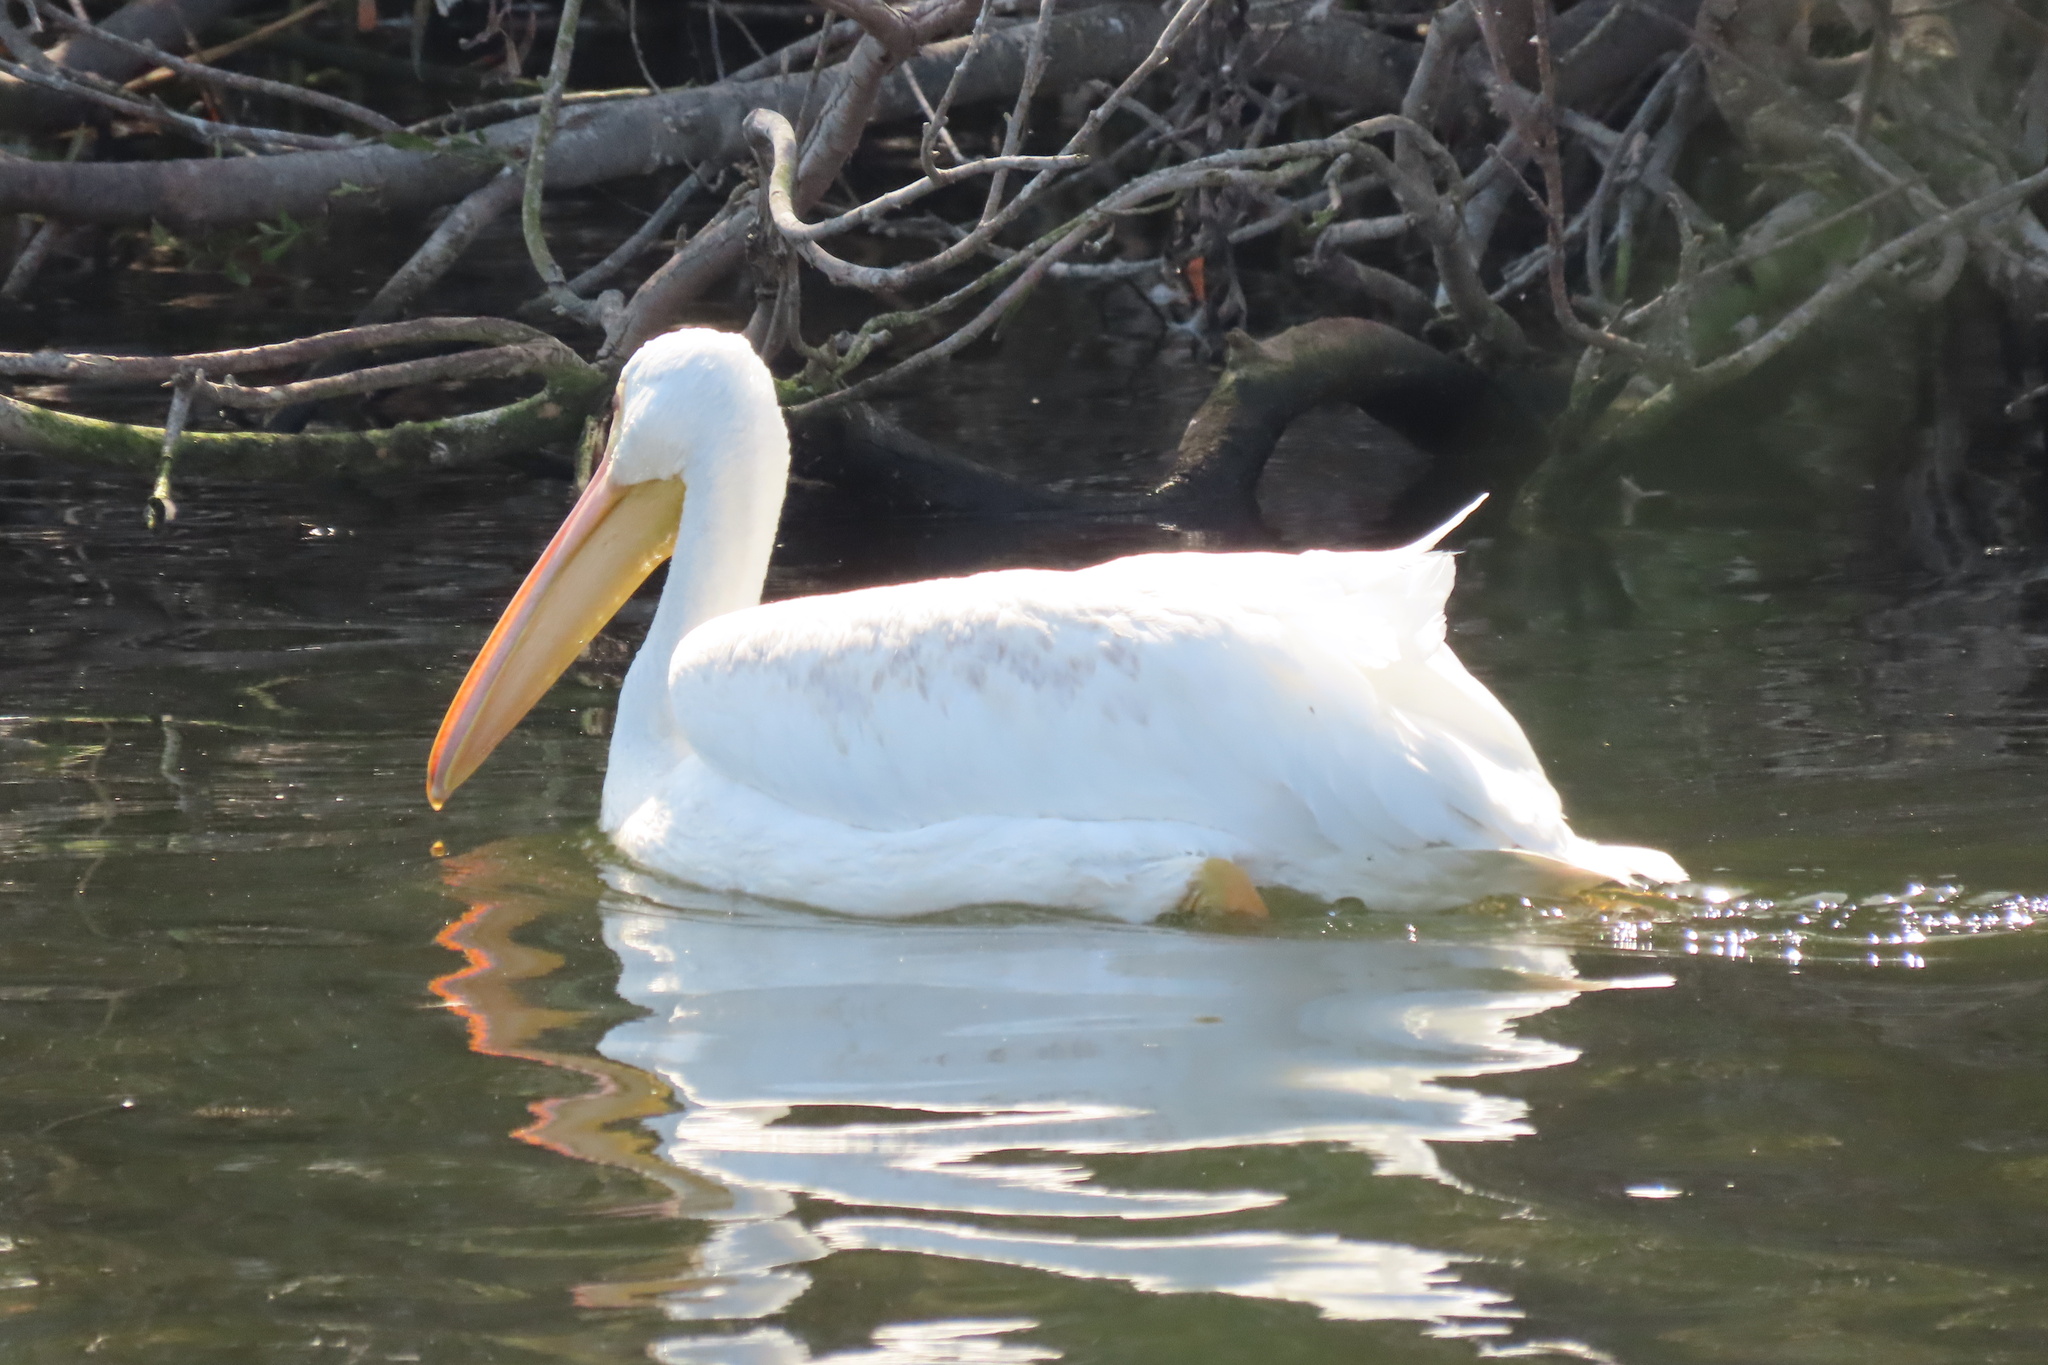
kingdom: Animalia
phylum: Chordata
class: Aves
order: Pelecaniformes
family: Pelecanidae
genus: Pelecanus
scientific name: Pelecanus erythrorhynchos
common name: American white pelican
